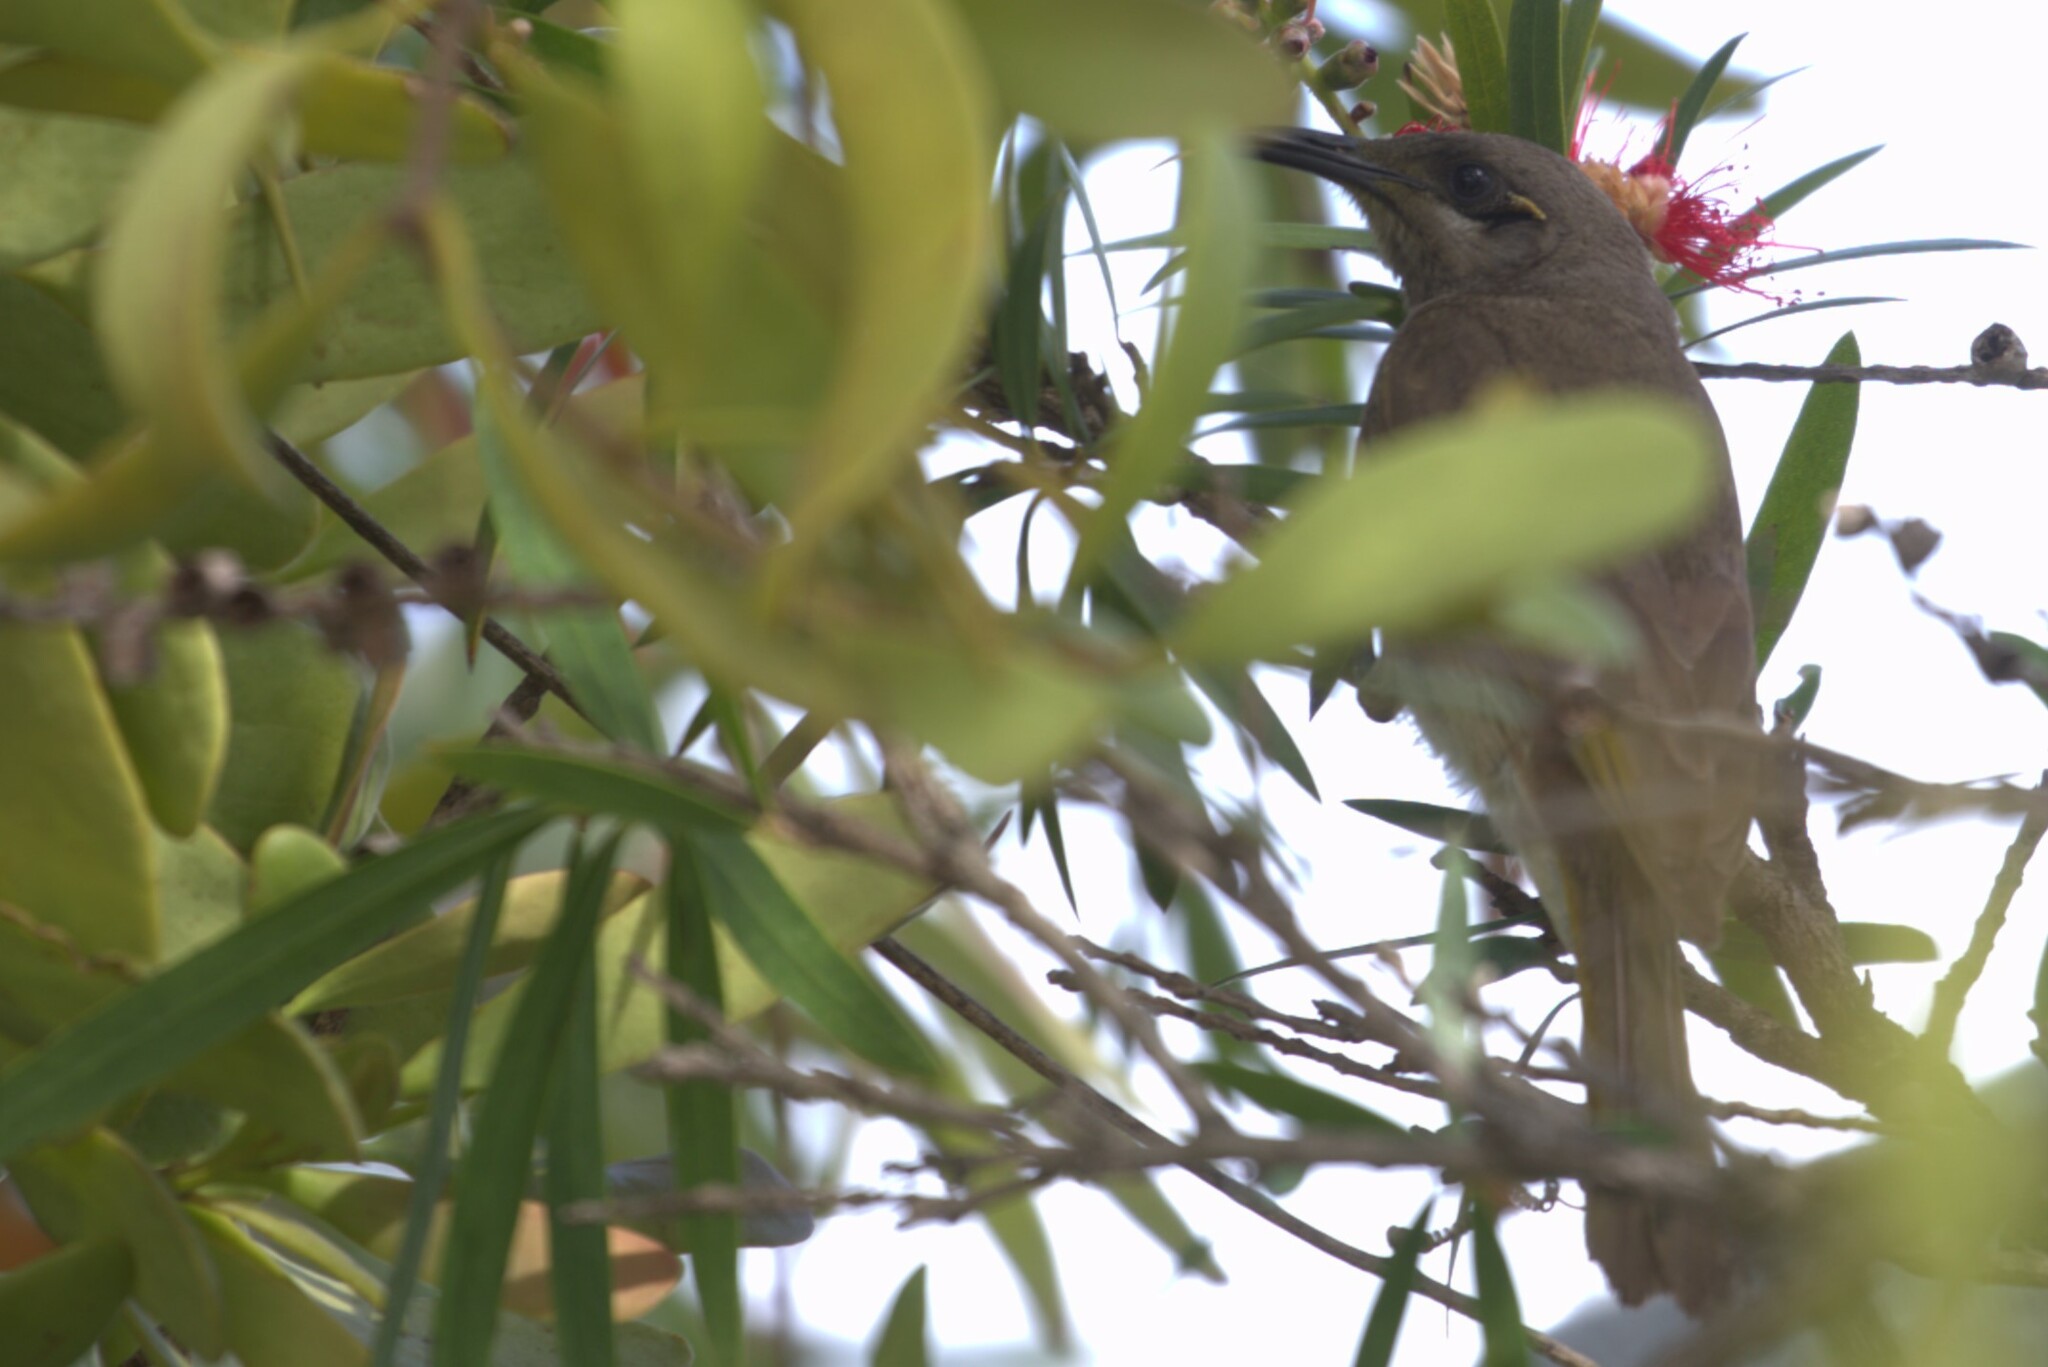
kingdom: Animalia
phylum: Chordata
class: Aves
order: Passeriformes
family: Meliphagidae
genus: Lichmera
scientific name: Lichmera indistincta
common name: Brown honeyeater
